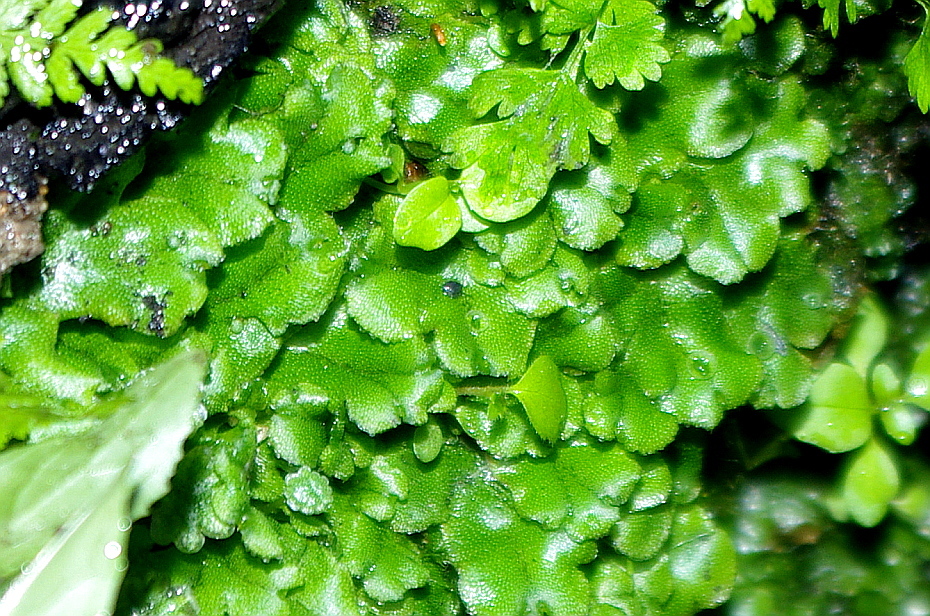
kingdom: Plantae
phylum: Marchantiophyta
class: Marchantiopsida
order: Marchantiales
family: Marchantiaceae
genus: Marchantia
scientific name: Marchantia polymorpha
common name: Common liverwort
